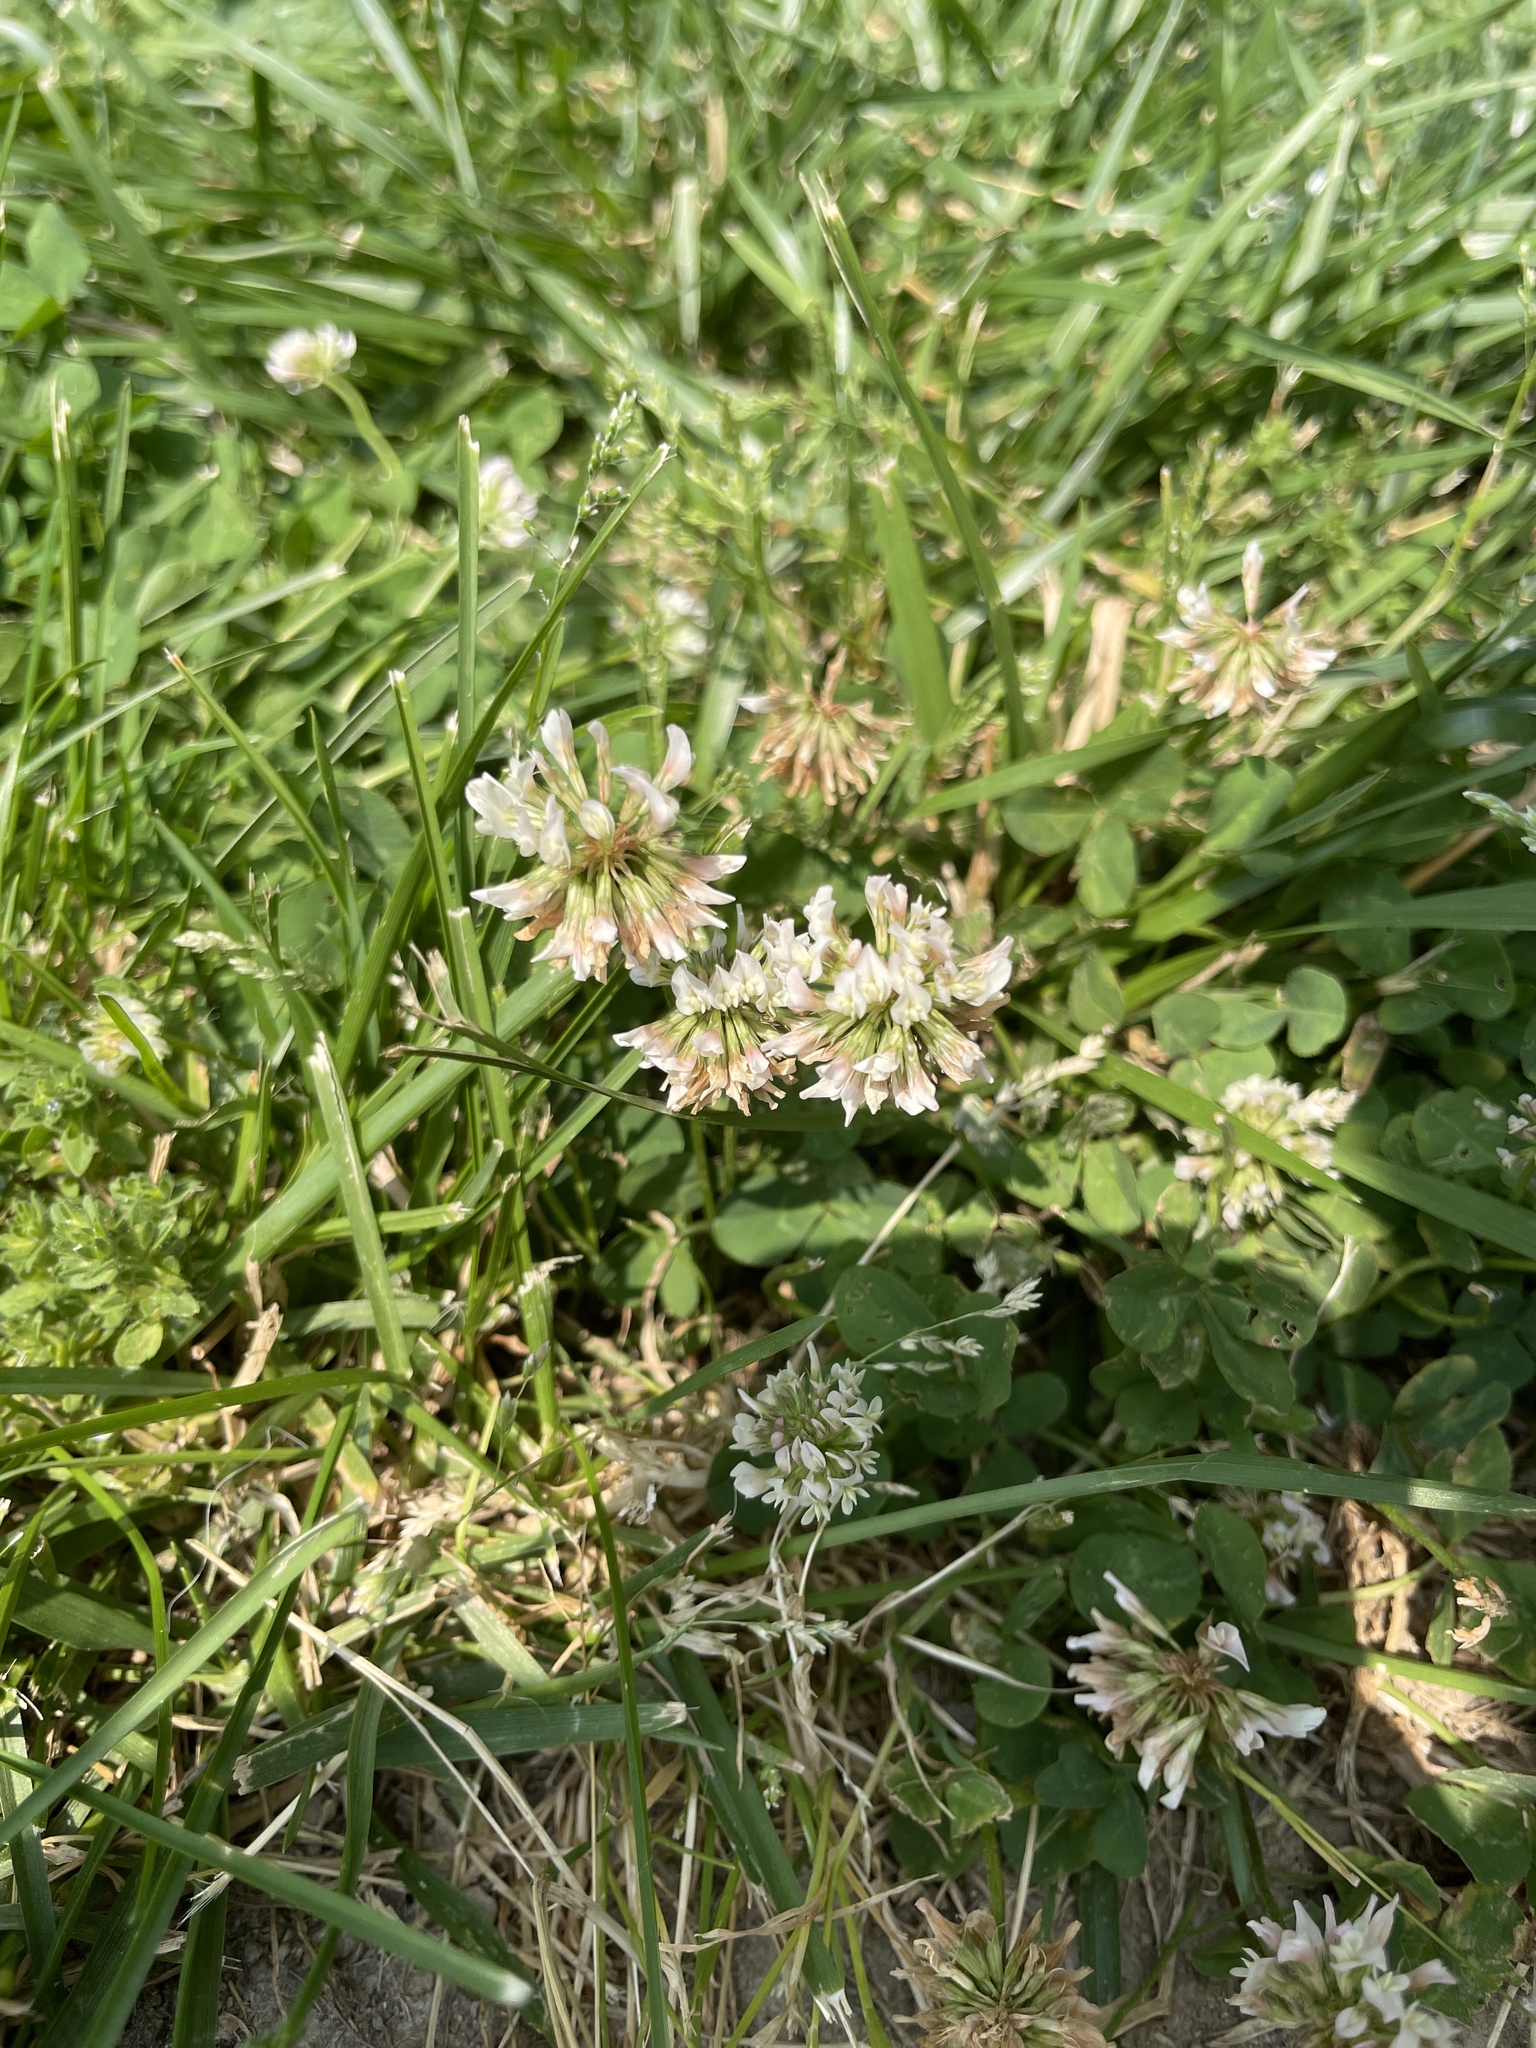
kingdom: Plantae
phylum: Tracheophyta
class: Magnoliopsida
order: Fabales
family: Fabaceae
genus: Trifolium
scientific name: Trifolium repens
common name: White clover
